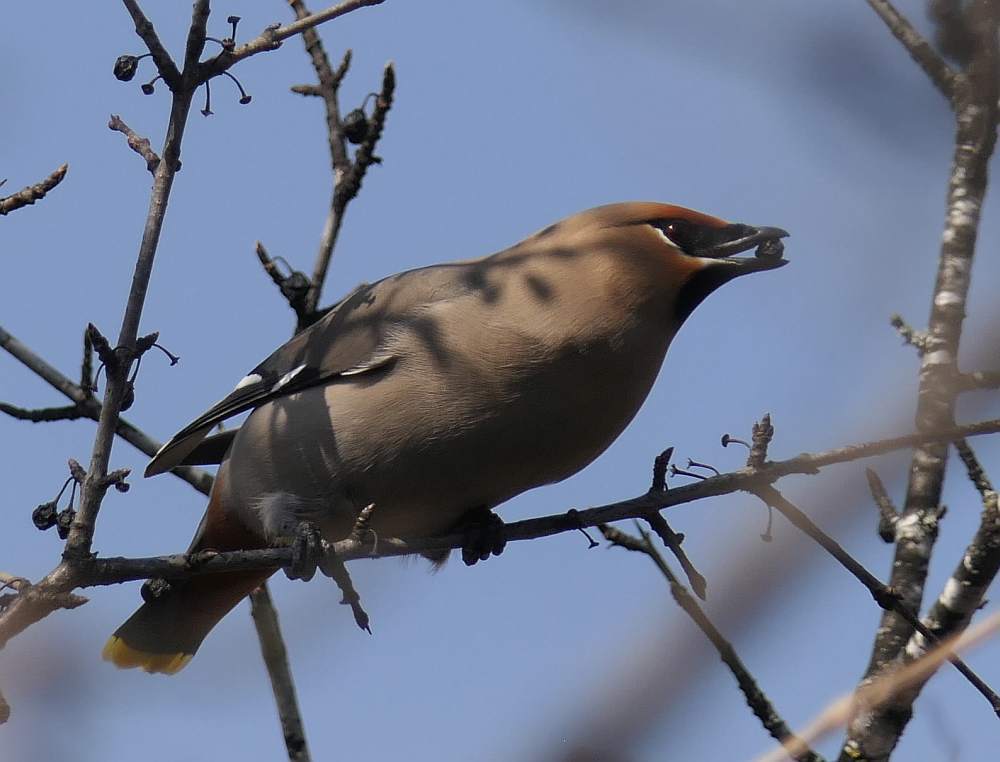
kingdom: Animalia
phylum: Chordata
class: Aves
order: Passeriformes
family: Bombycillidae
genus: Bombycilla
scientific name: Bombycilla garrulus
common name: Bohemian waxwing
